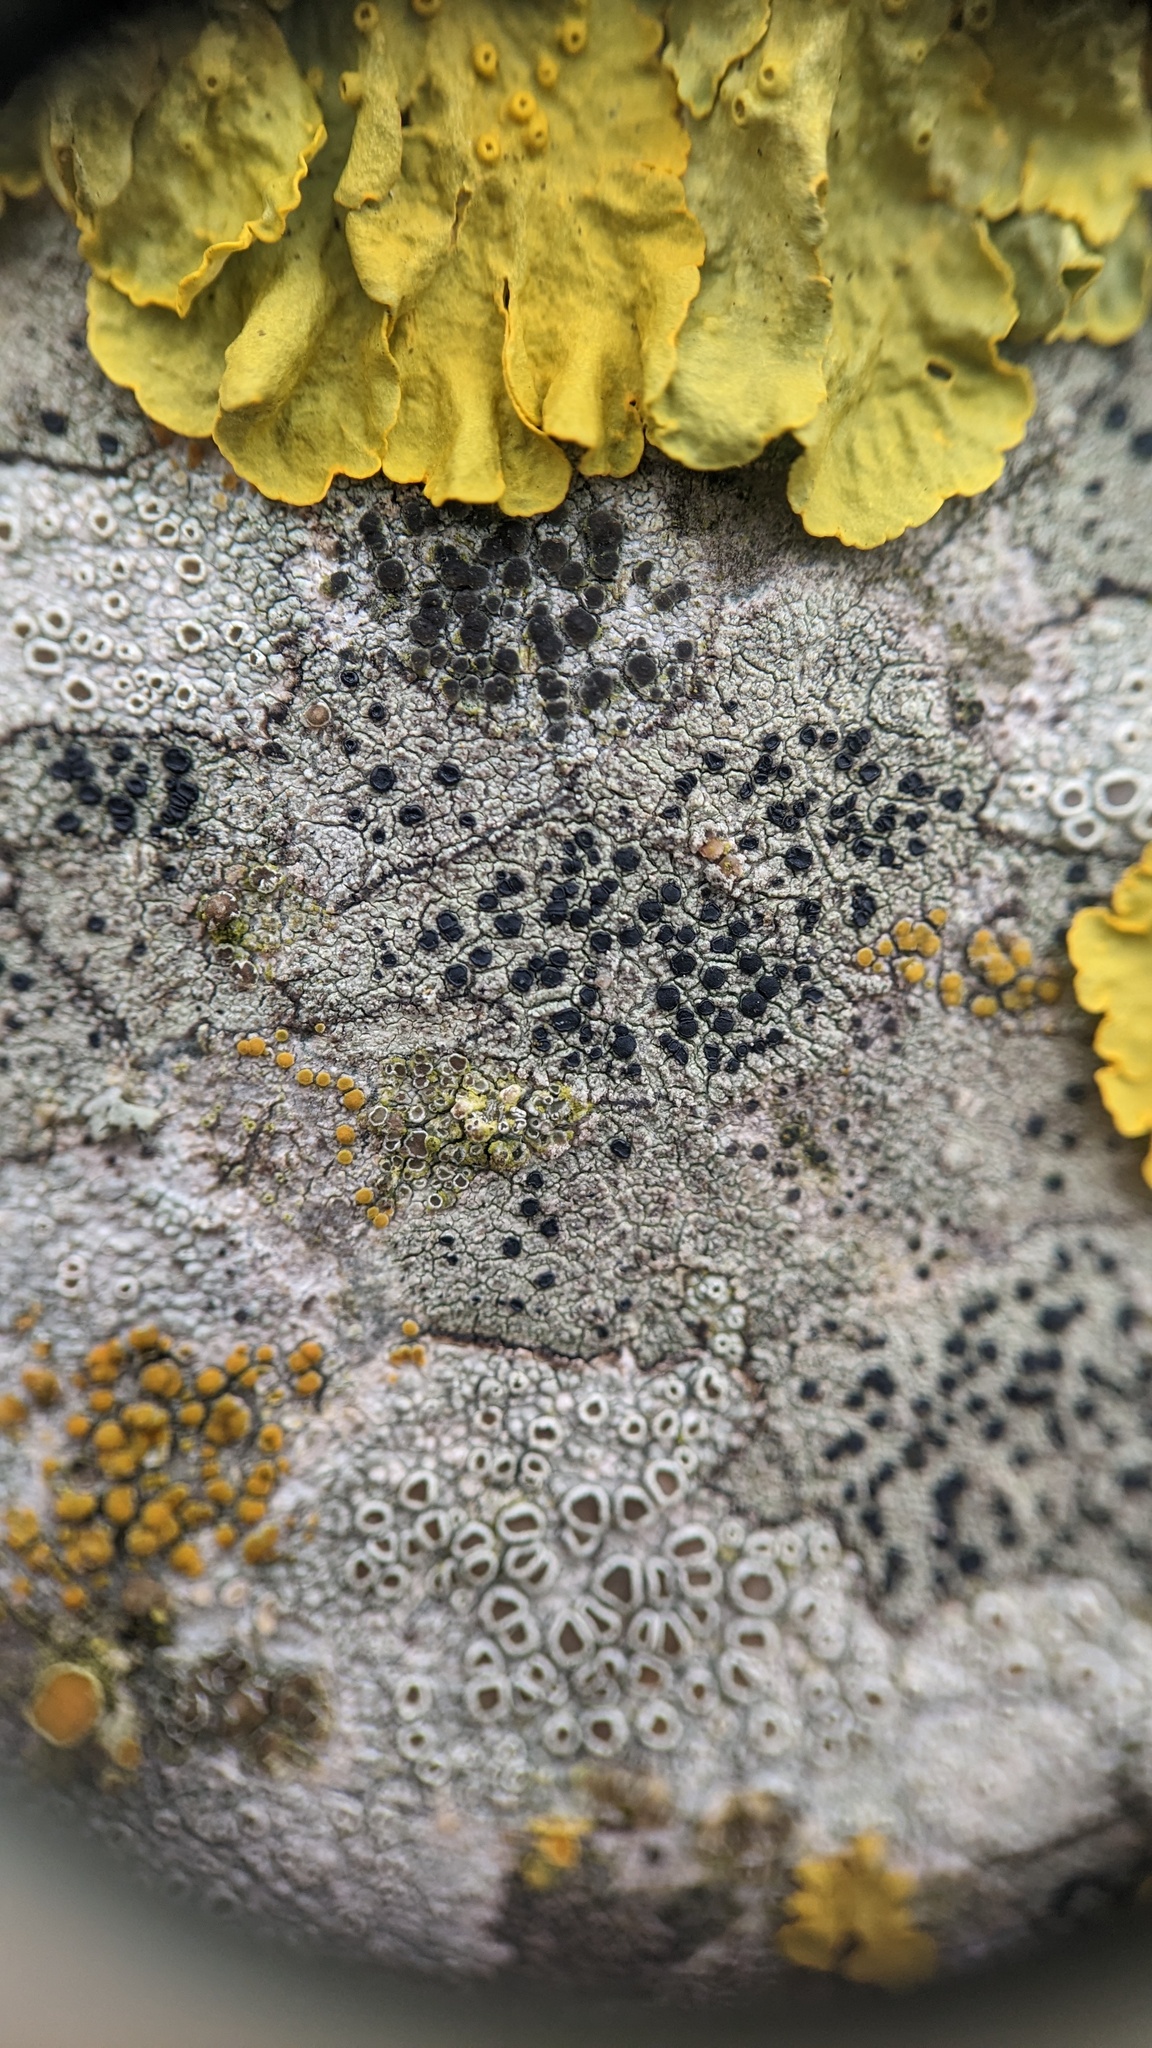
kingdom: Fungi
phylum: Ascomycota
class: Lecanoromycetes
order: Lecanorales
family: Lecanoraceae
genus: Lecidella
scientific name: Lecidella elaeochroma
